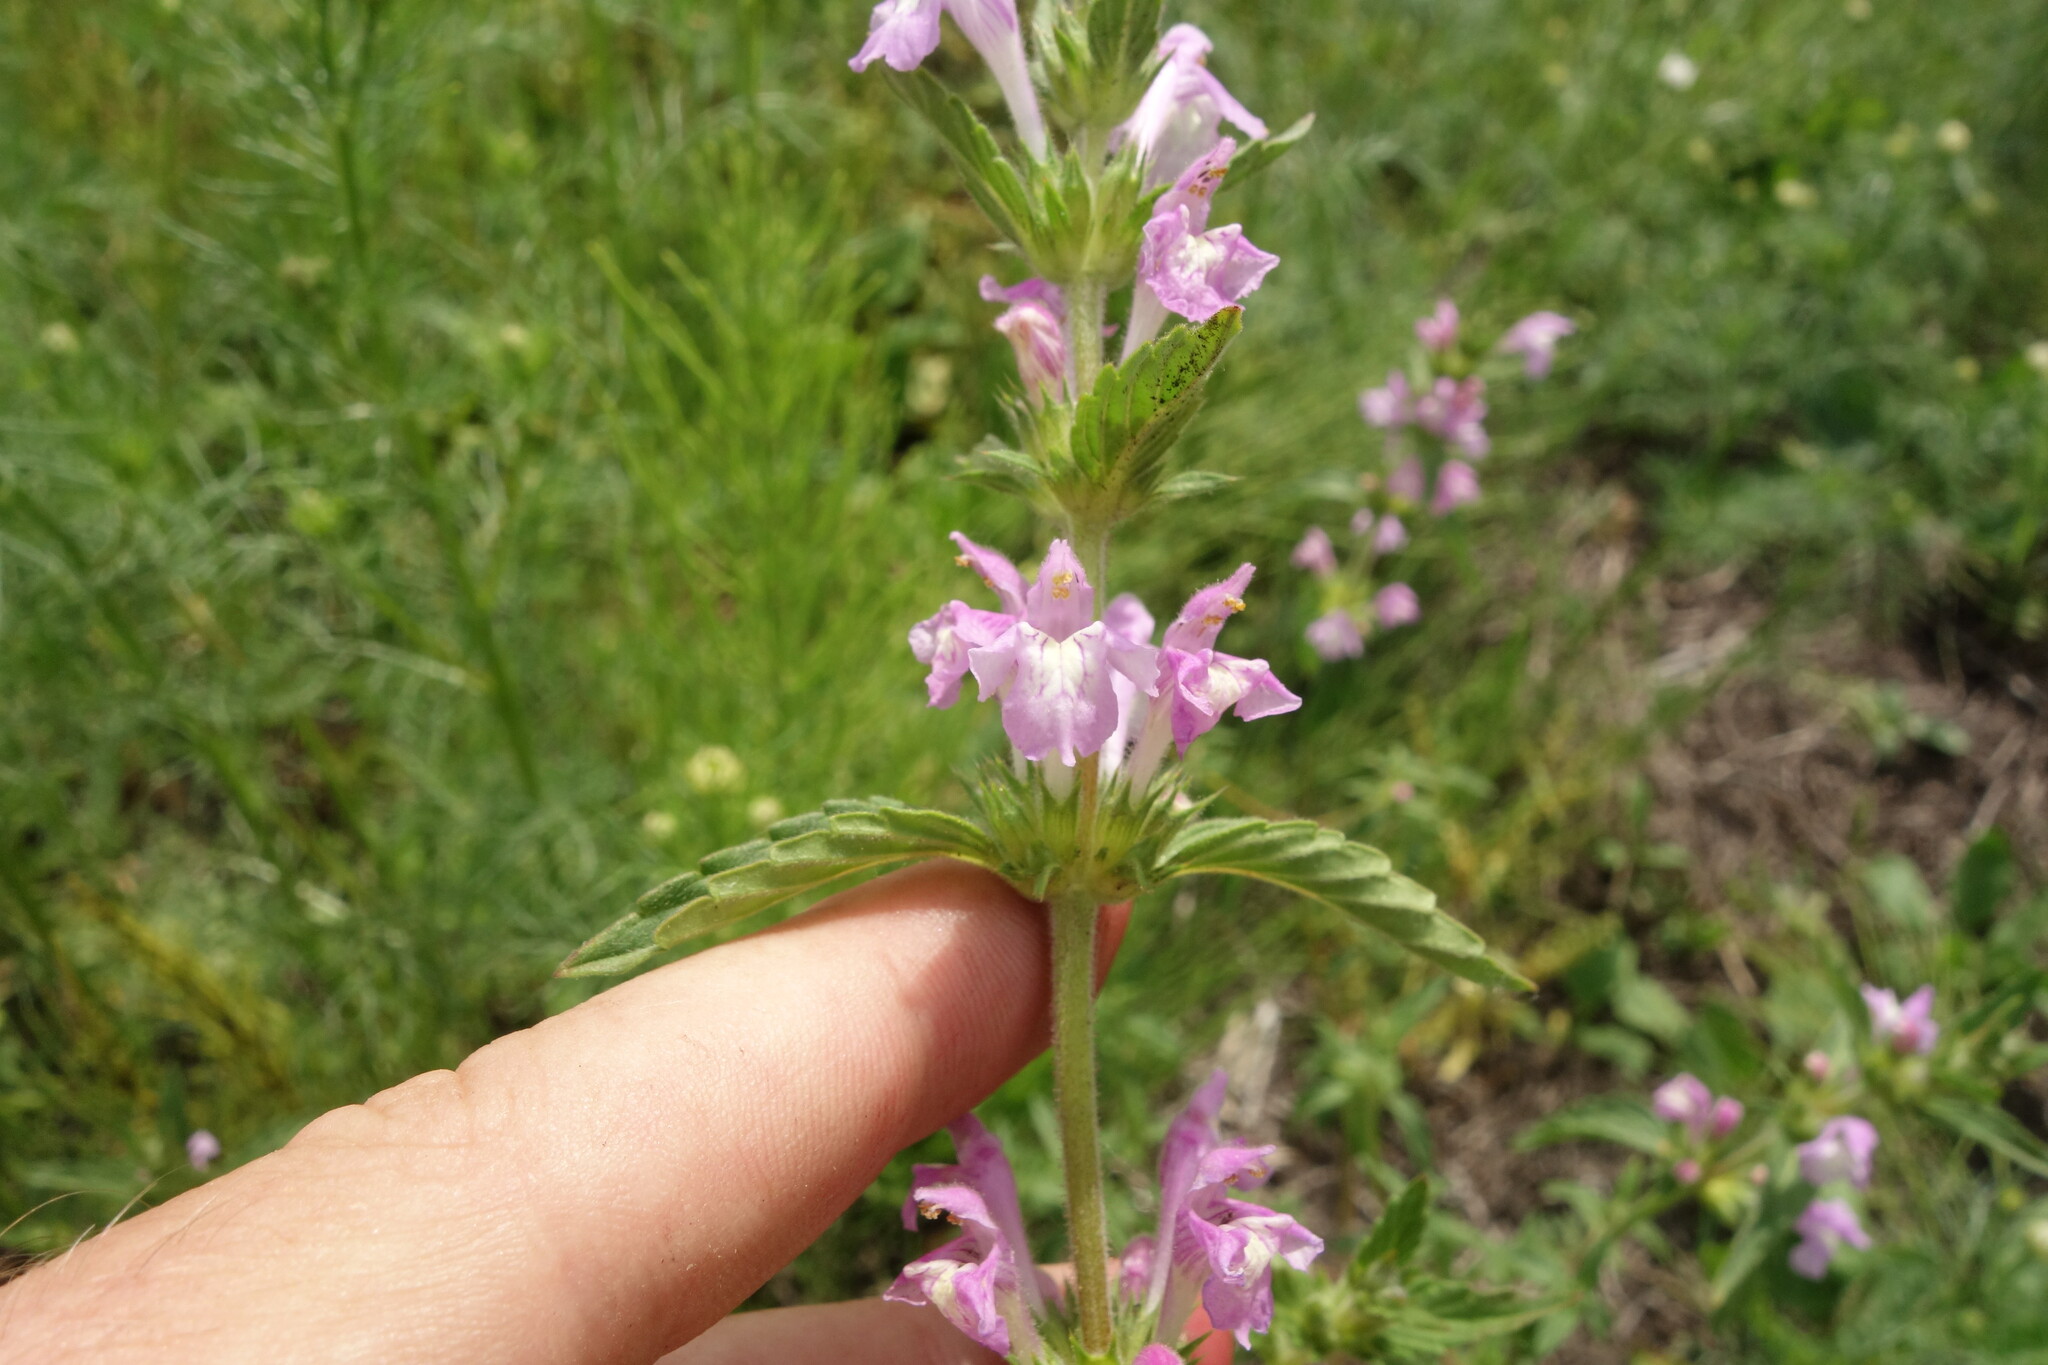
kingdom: Plantae
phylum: Tracheophyta
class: Magnoliopsida
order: Lamiales
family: Lamiaceae
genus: Galeopsis
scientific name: Galeopsis ladanum
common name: Broad-leaved hemp-nettle
